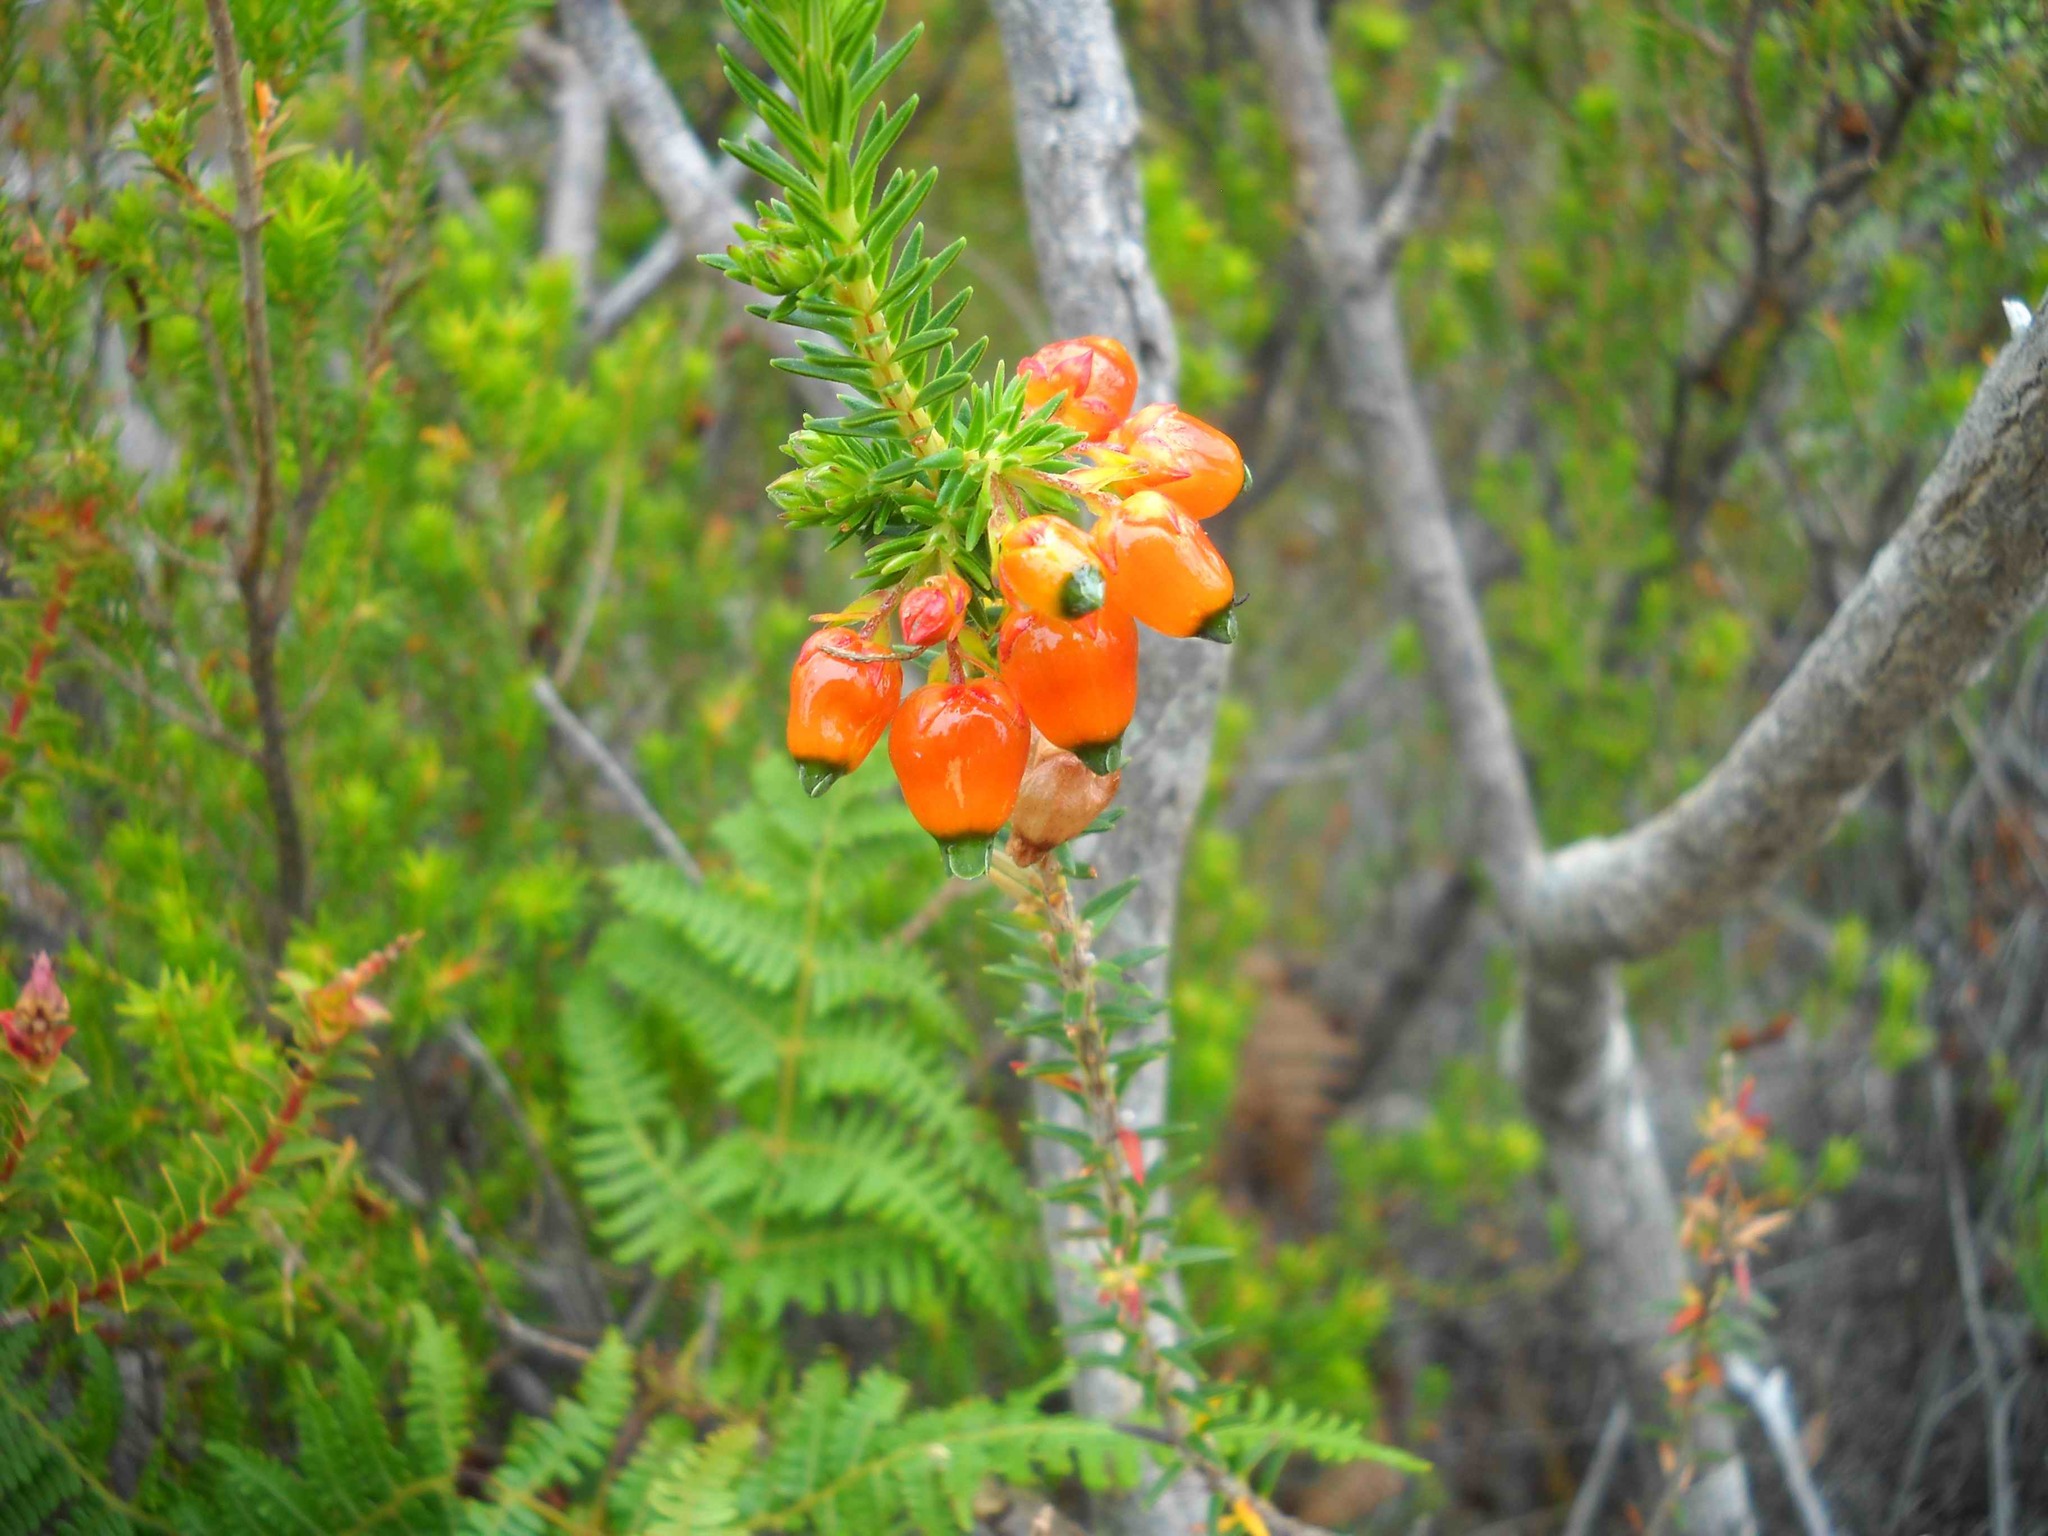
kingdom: Plantae
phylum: Tracheophyta
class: Magnoliopsida
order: Ericales
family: Ericaceae
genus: Erica
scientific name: Erica blenna
